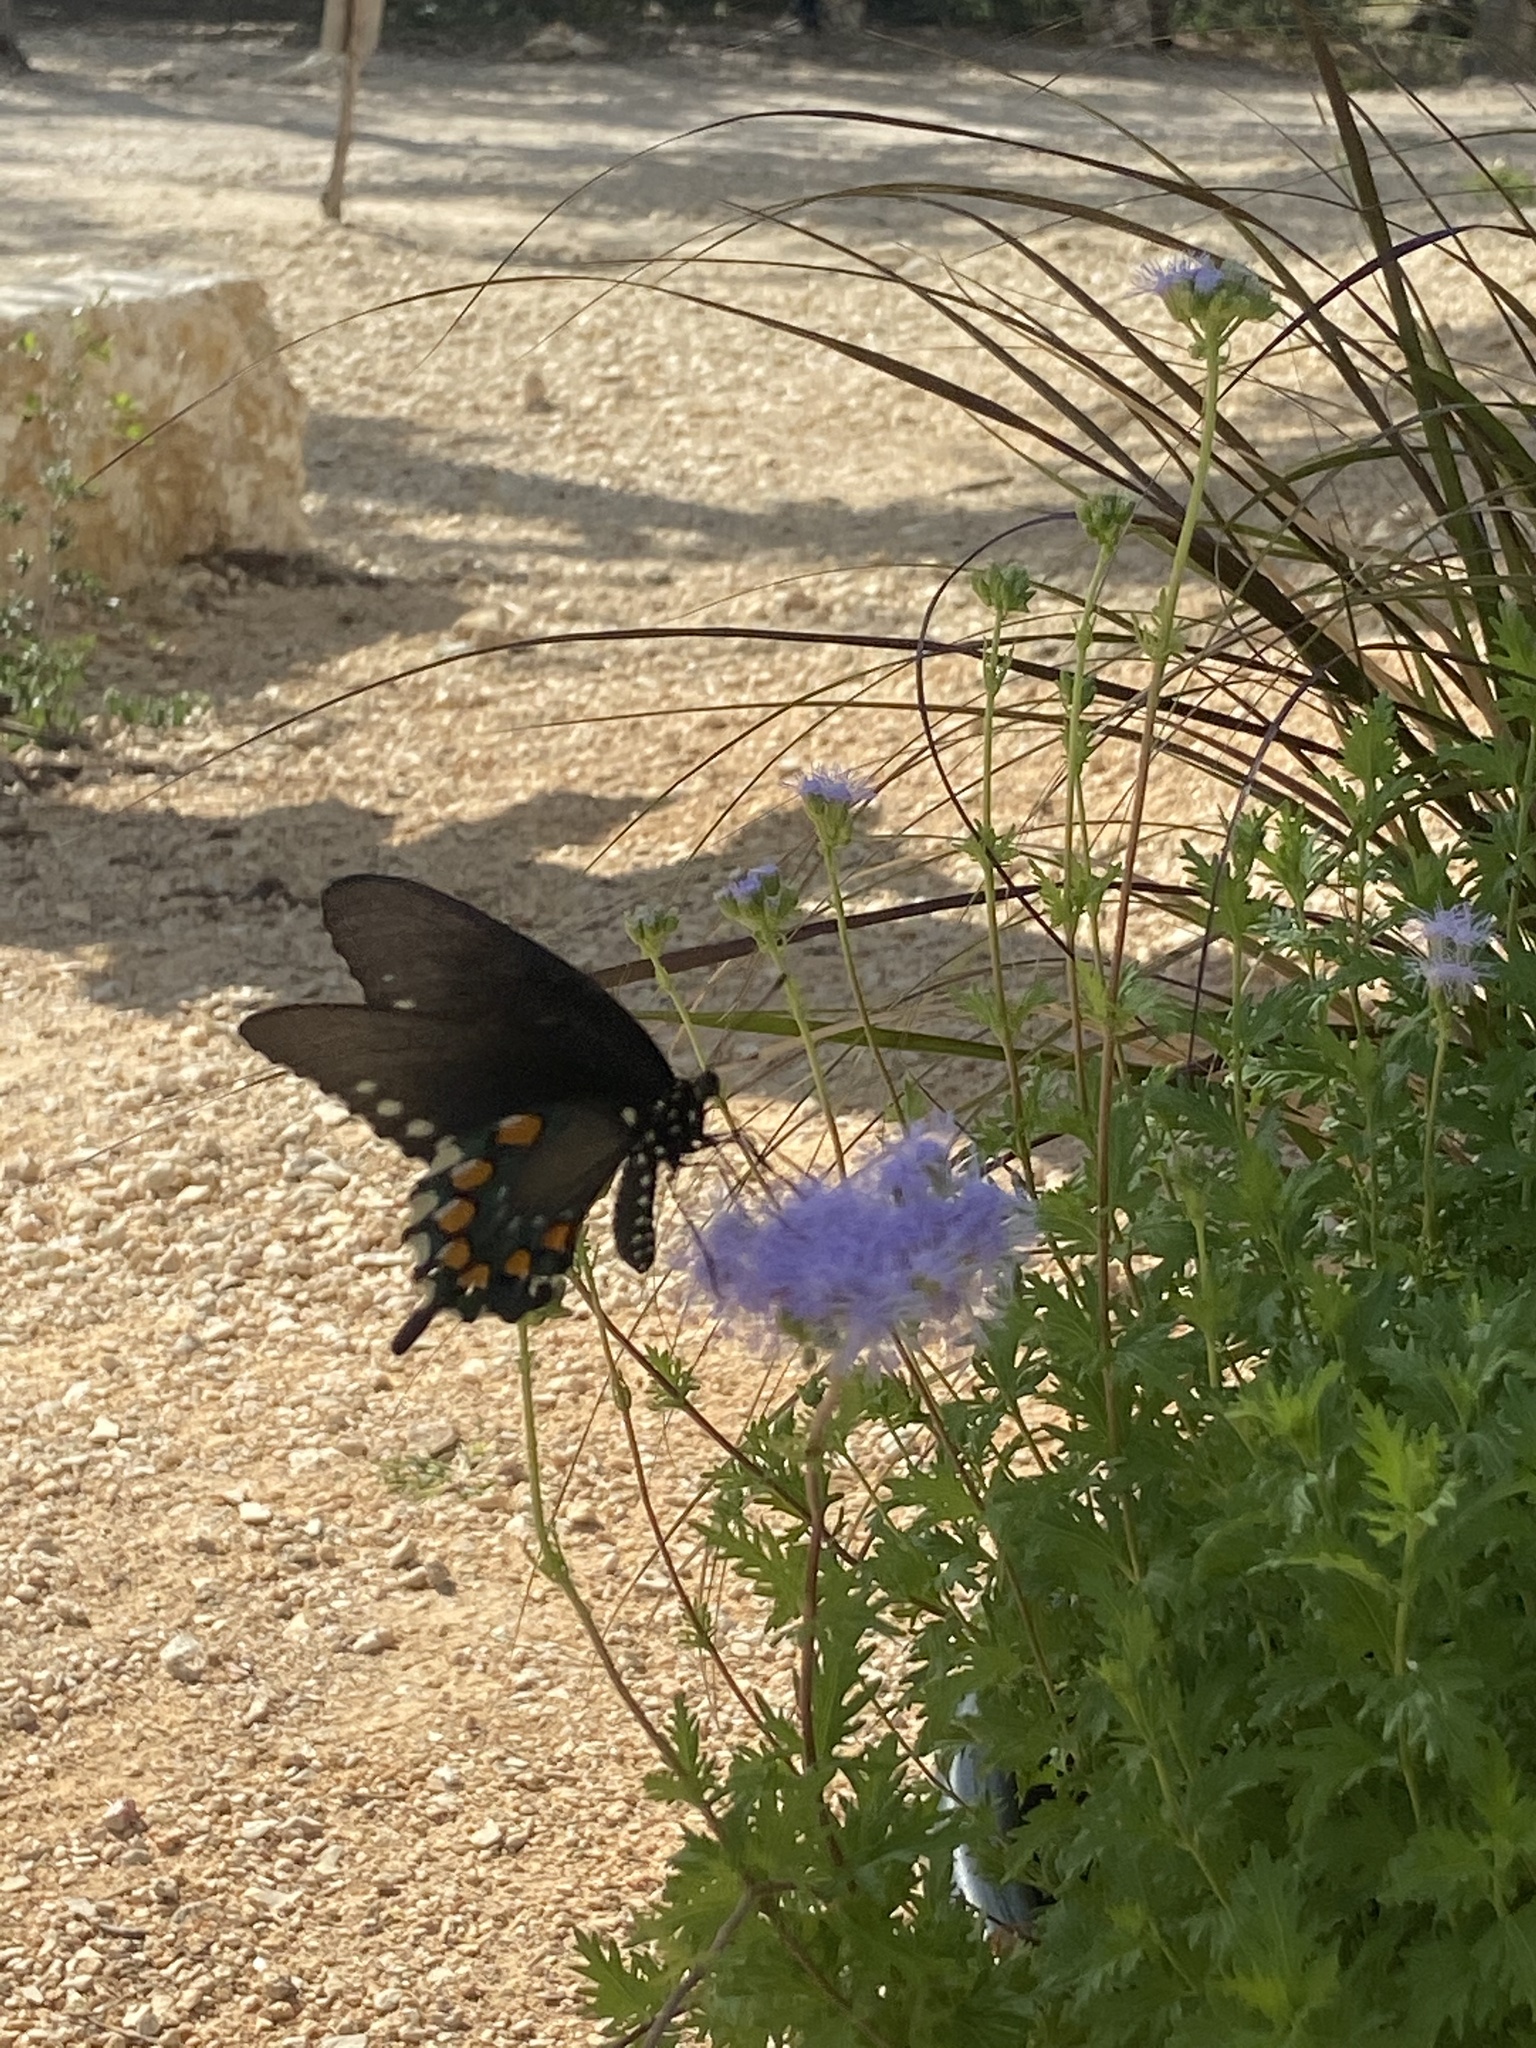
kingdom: Animalia
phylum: Arthropoda
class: Insecta
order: Lepidoptera
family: Papilionidae
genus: Battus
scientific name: Battus philenor
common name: Pipevine swallowtail
